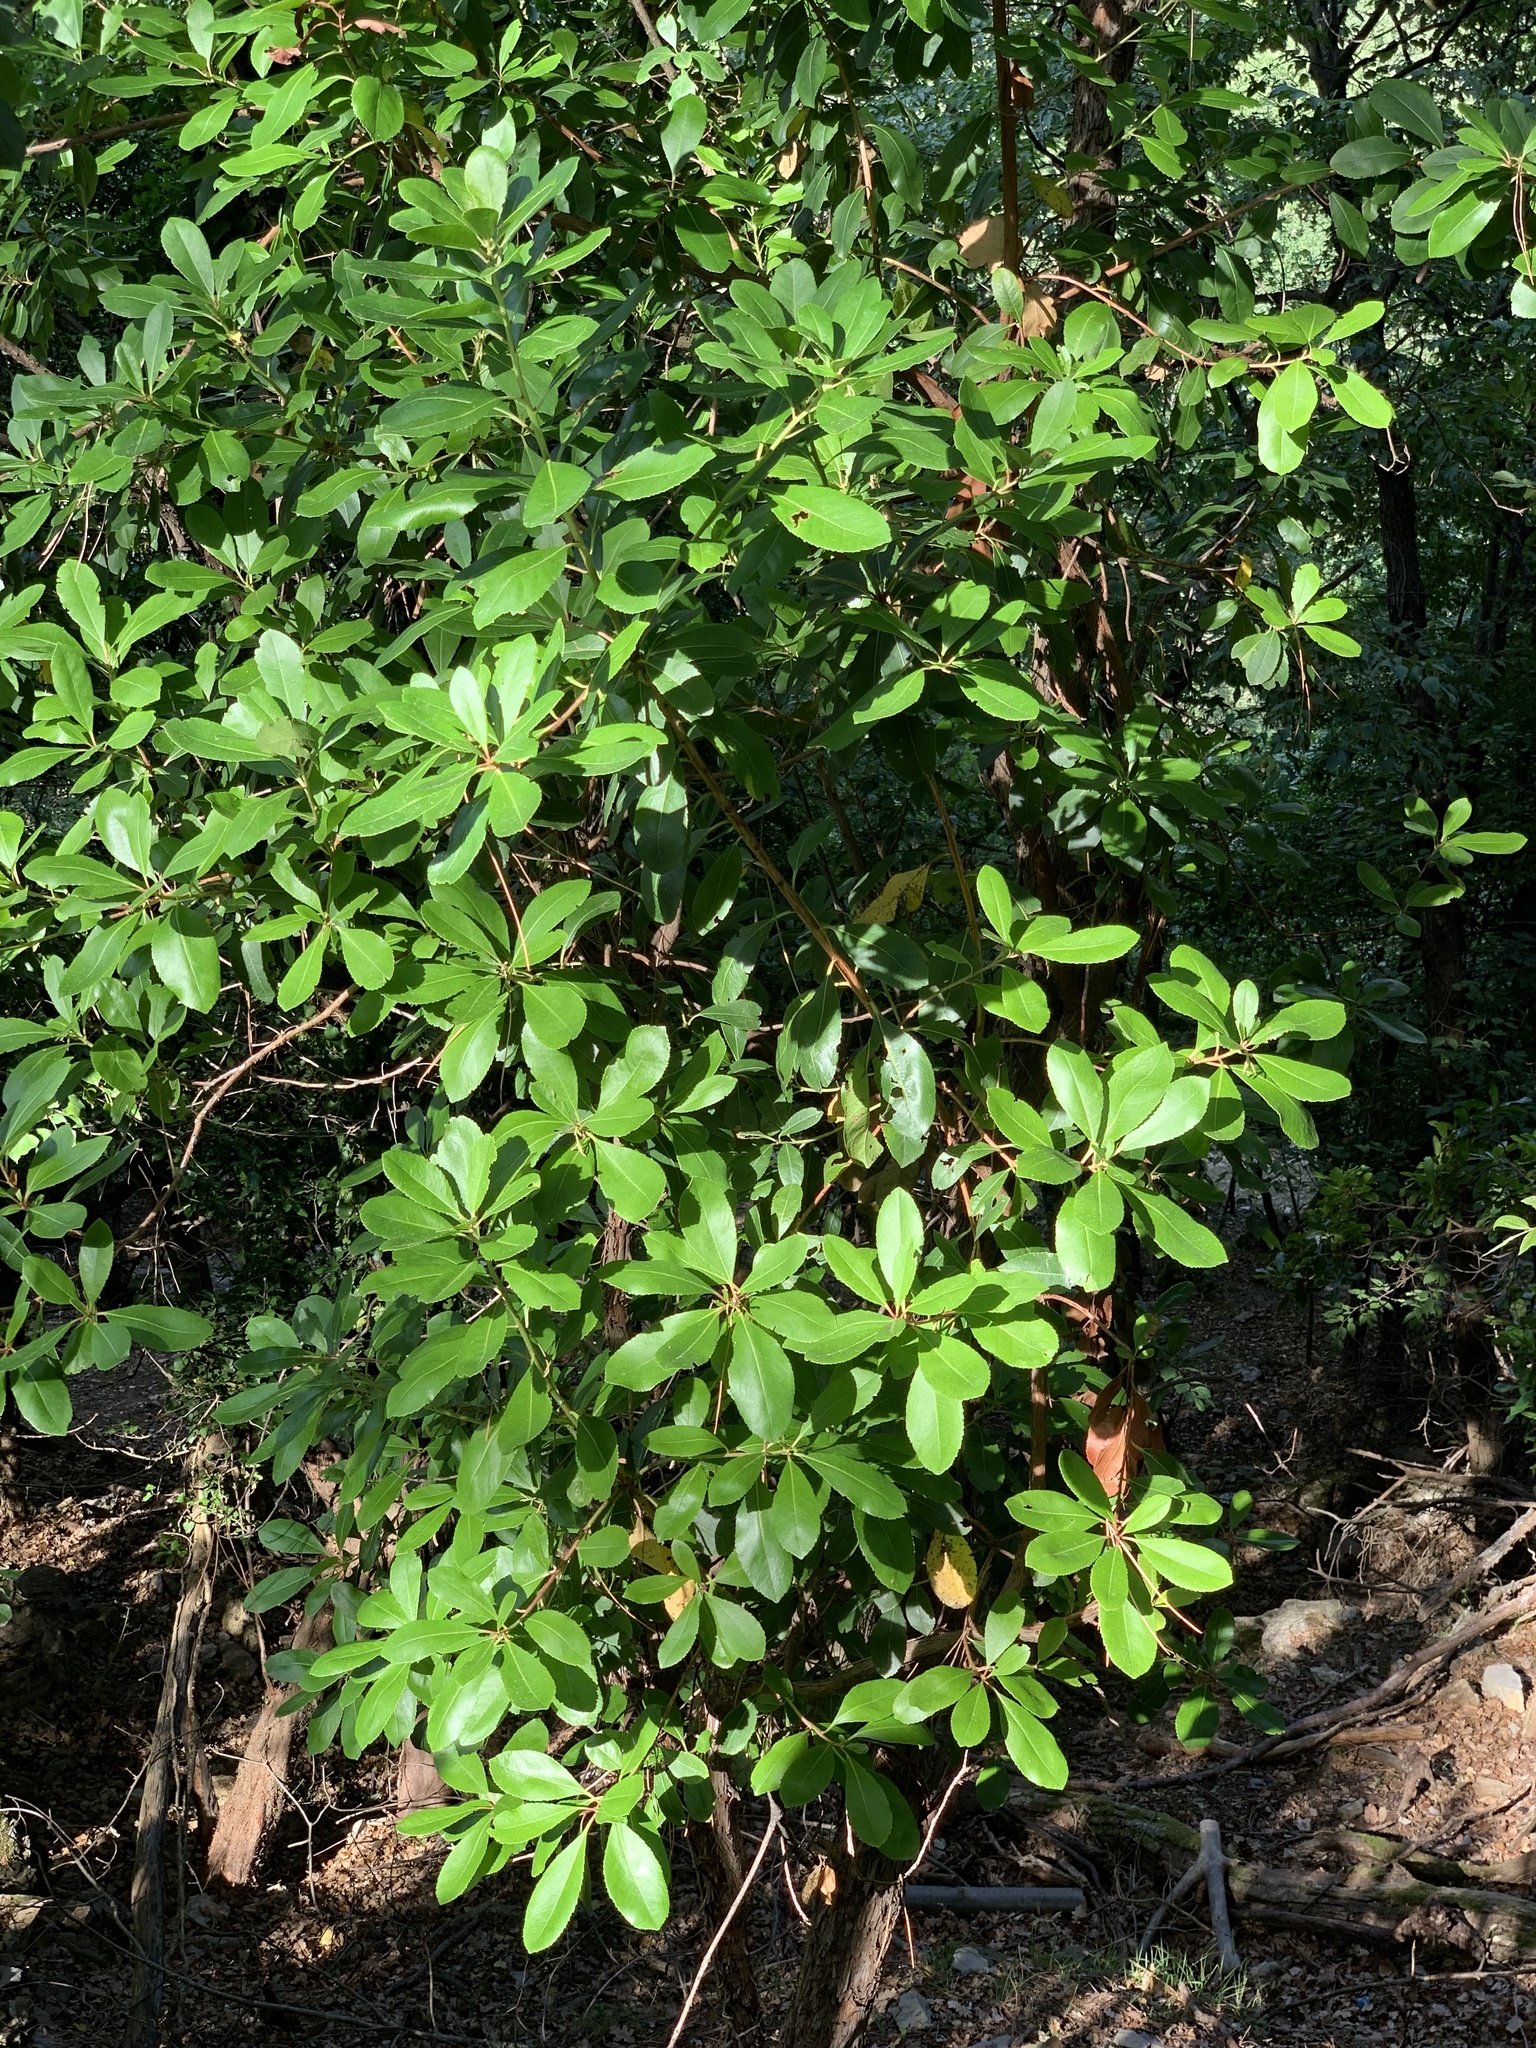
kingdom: Plantae
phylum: Tracheophyta
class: Magnoliopsida
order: Ericales
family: Ericaceae
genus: Arbutus
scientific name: Arbutus unedo
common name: Strawberry-tree
